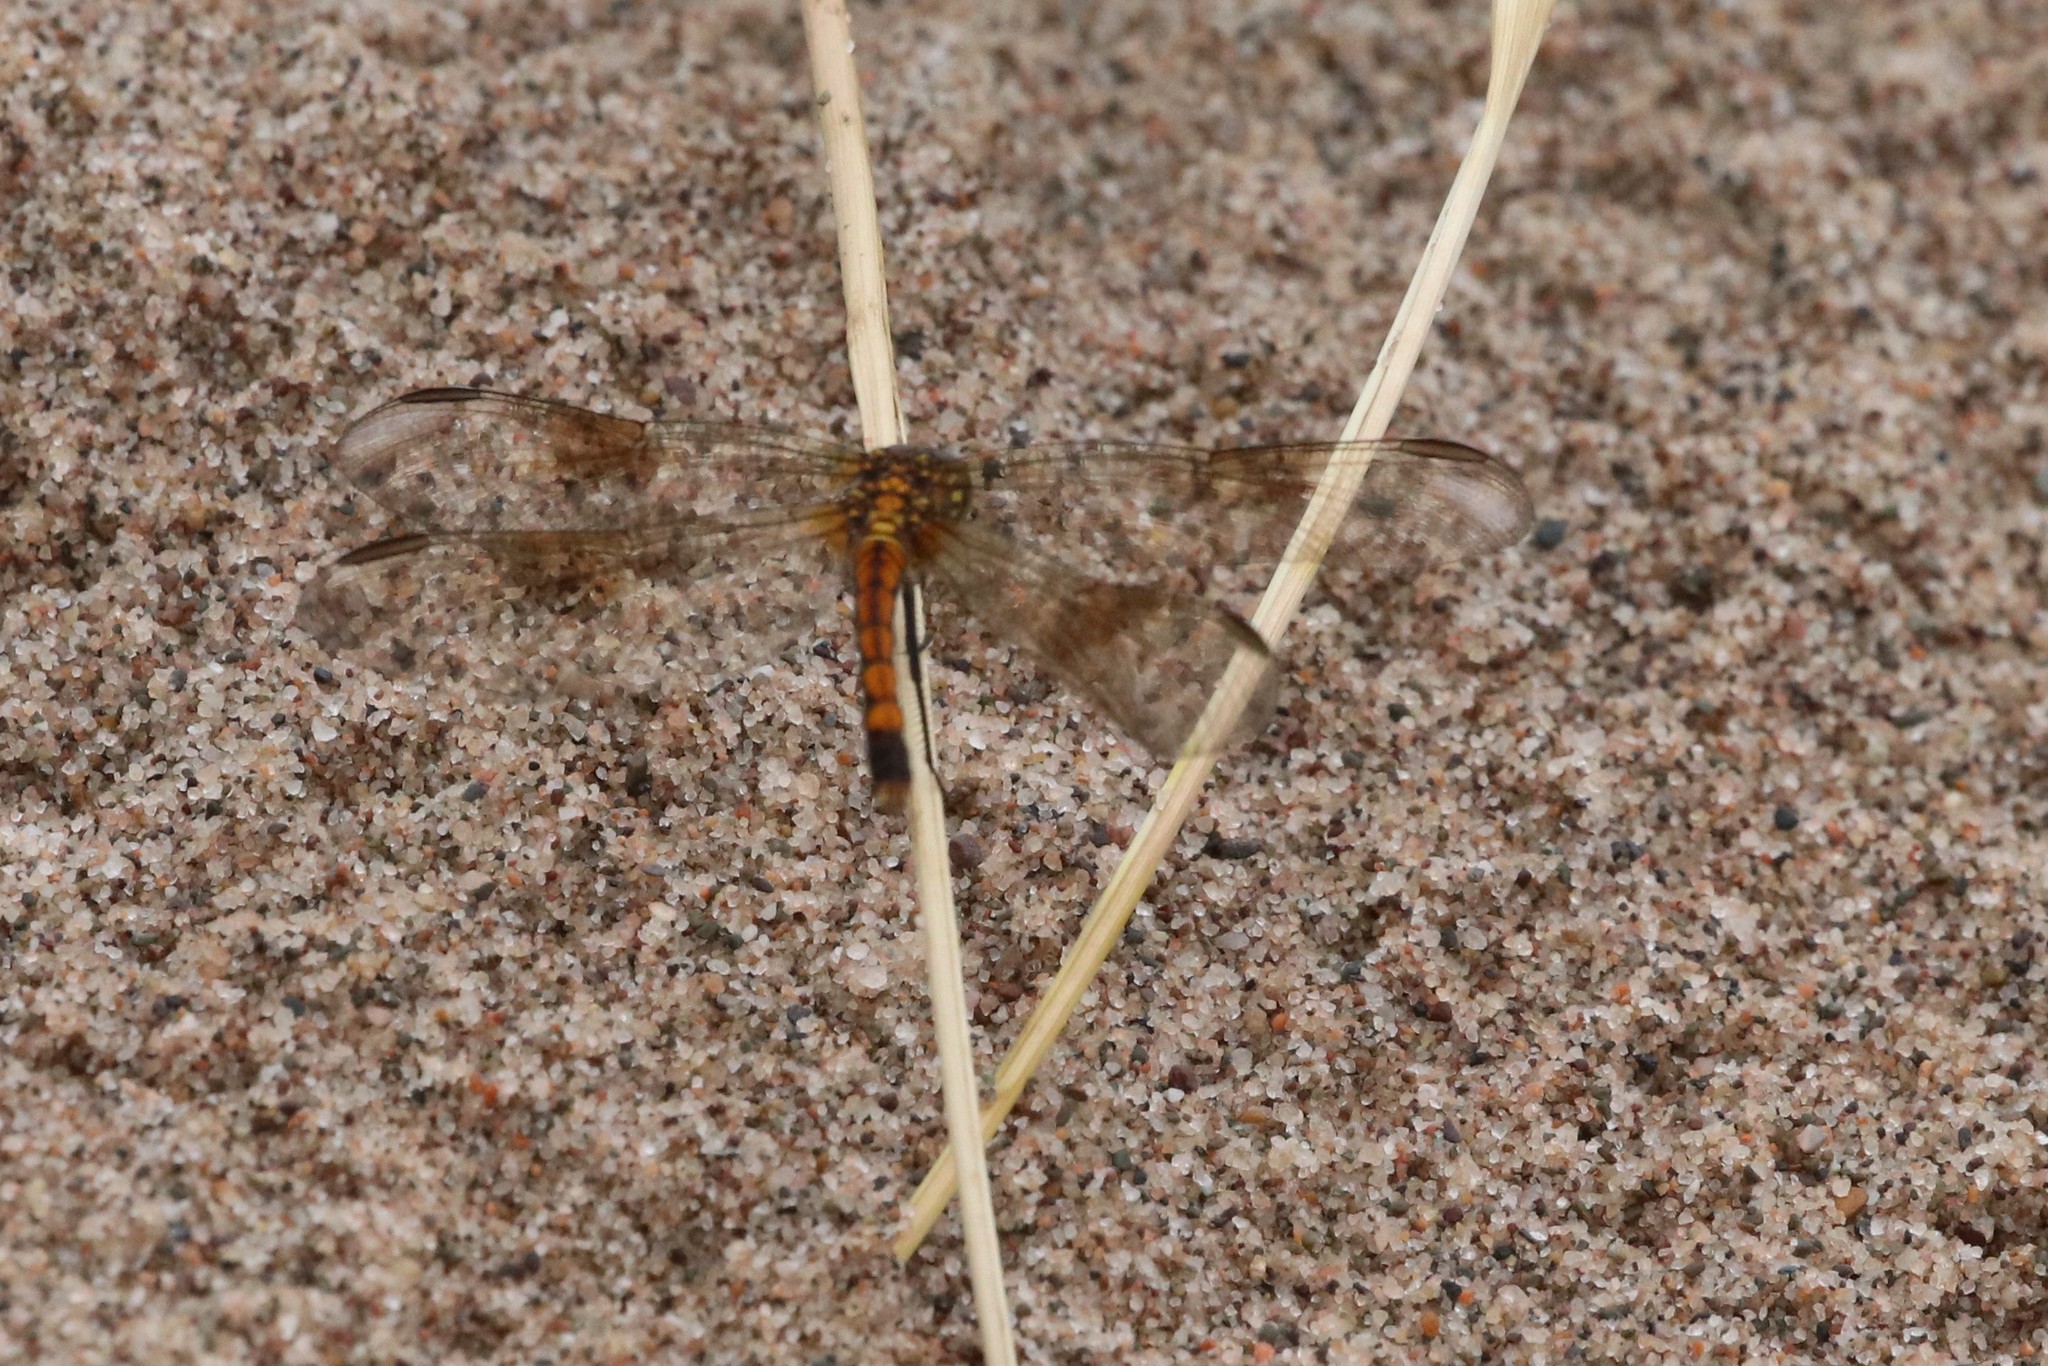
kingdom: Animalia
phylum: Arthropoda
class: Insecta
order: Odonata
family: Libellulidae
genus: Erythrodiplax
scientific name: Erythrodiplax berenice
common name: Seaside dragonlet
